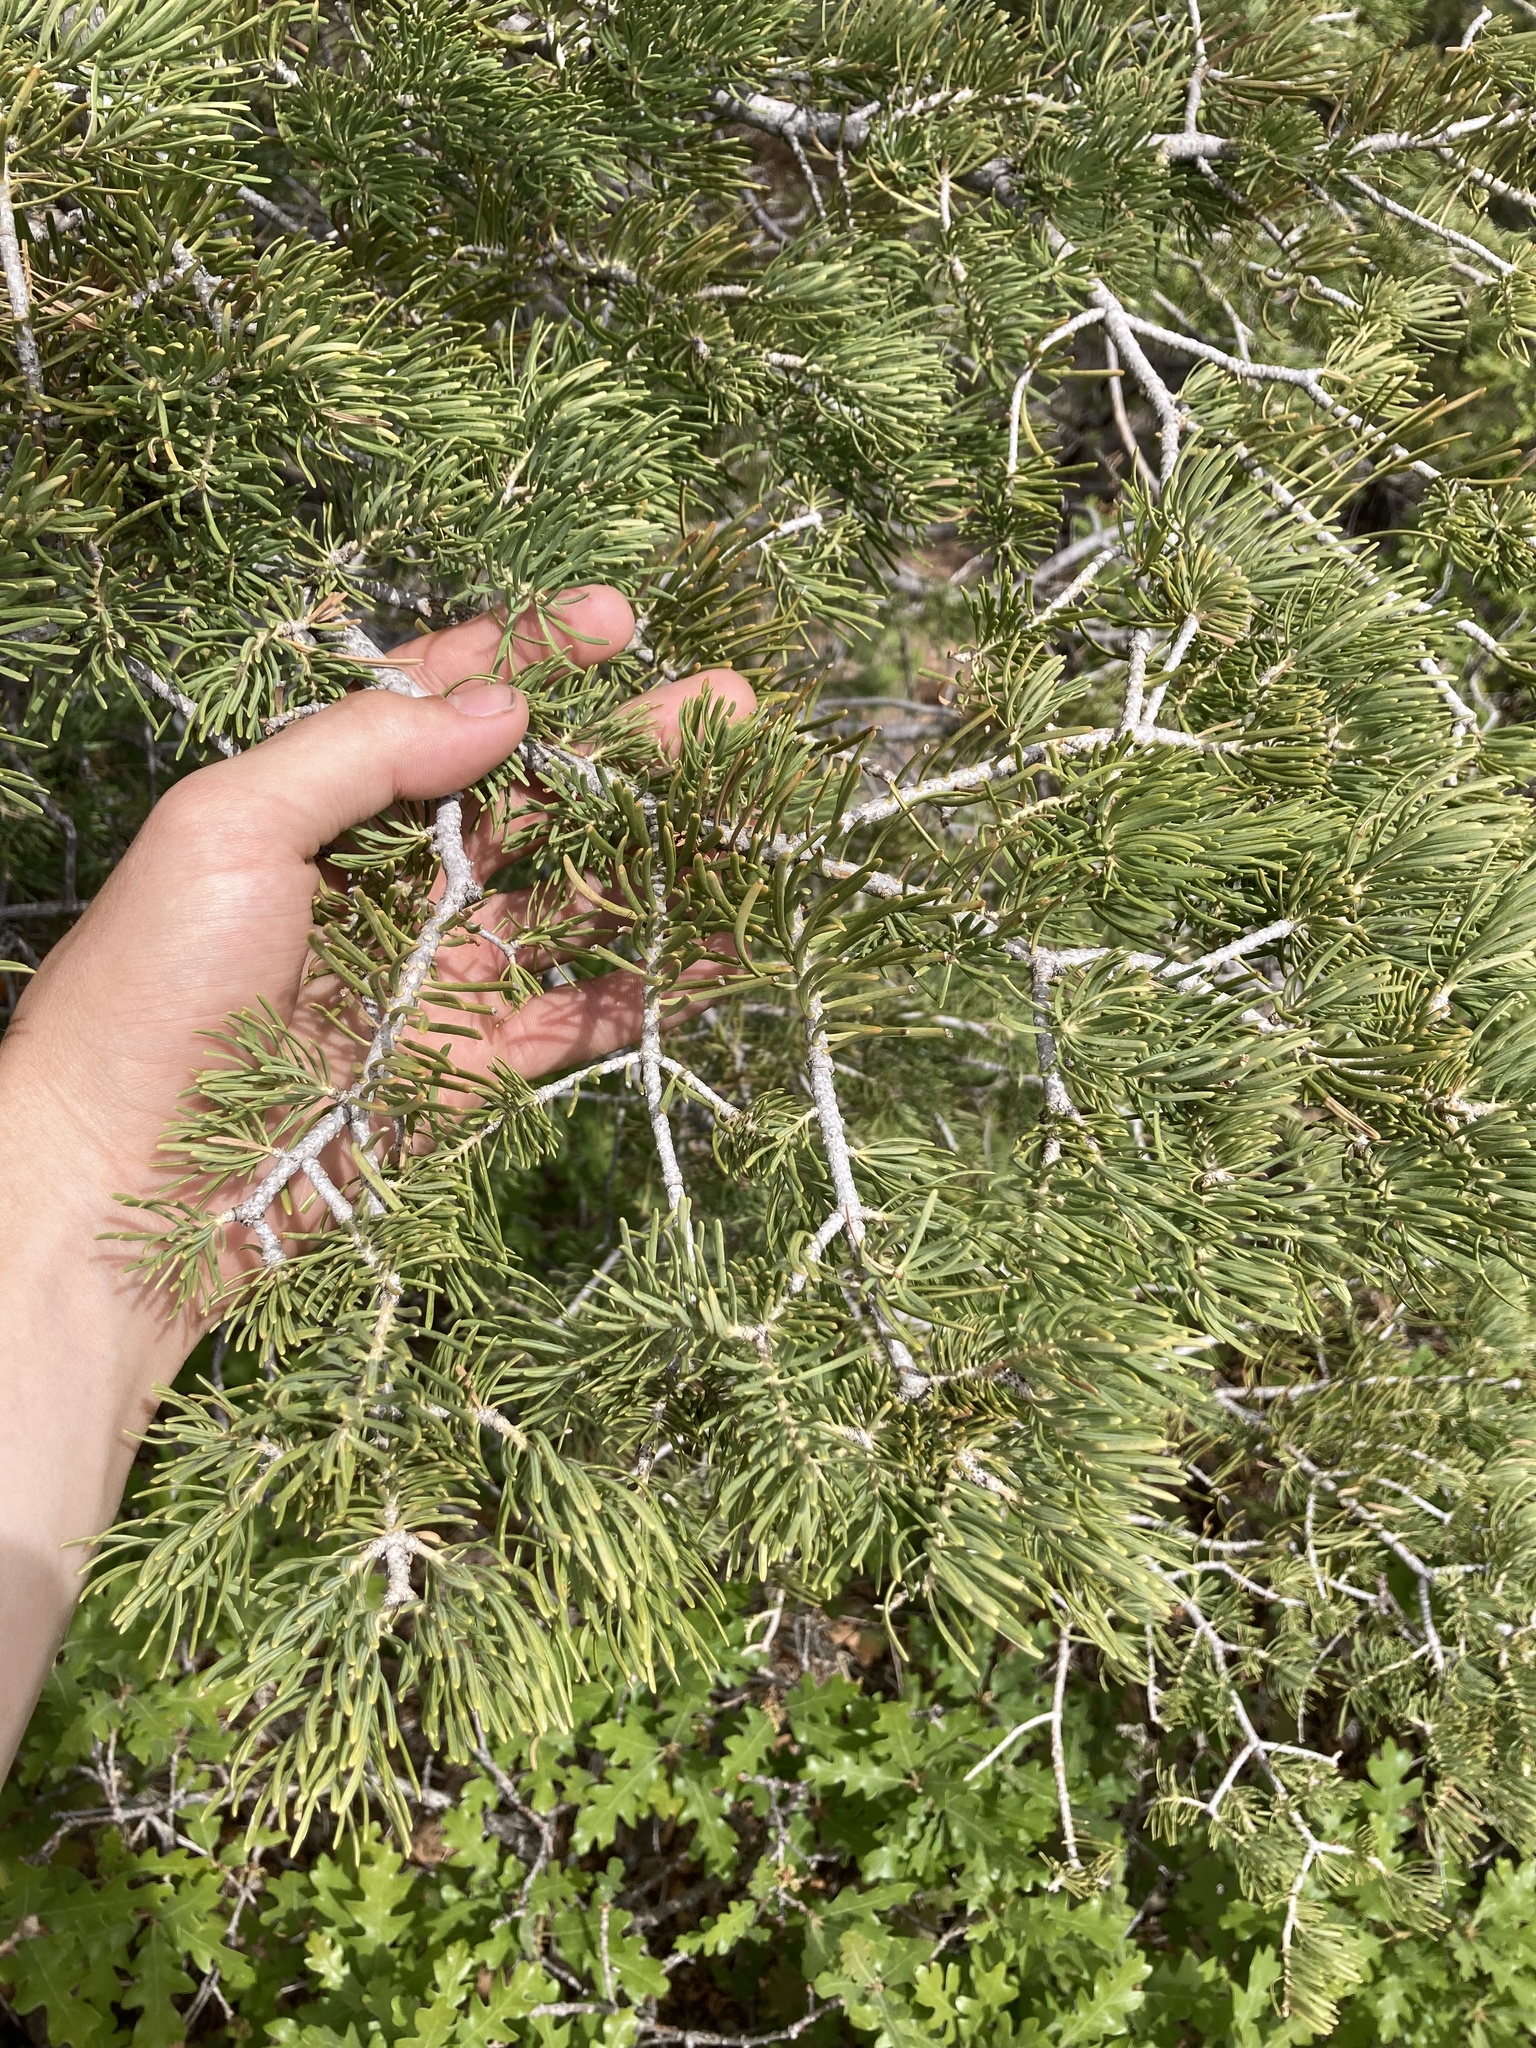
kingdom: Plantae
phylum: Tracheophyta
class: Pinopsida
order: Pinales
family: Pinaceae
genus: Abies
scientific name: Abies concolor
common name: Colorado fir
